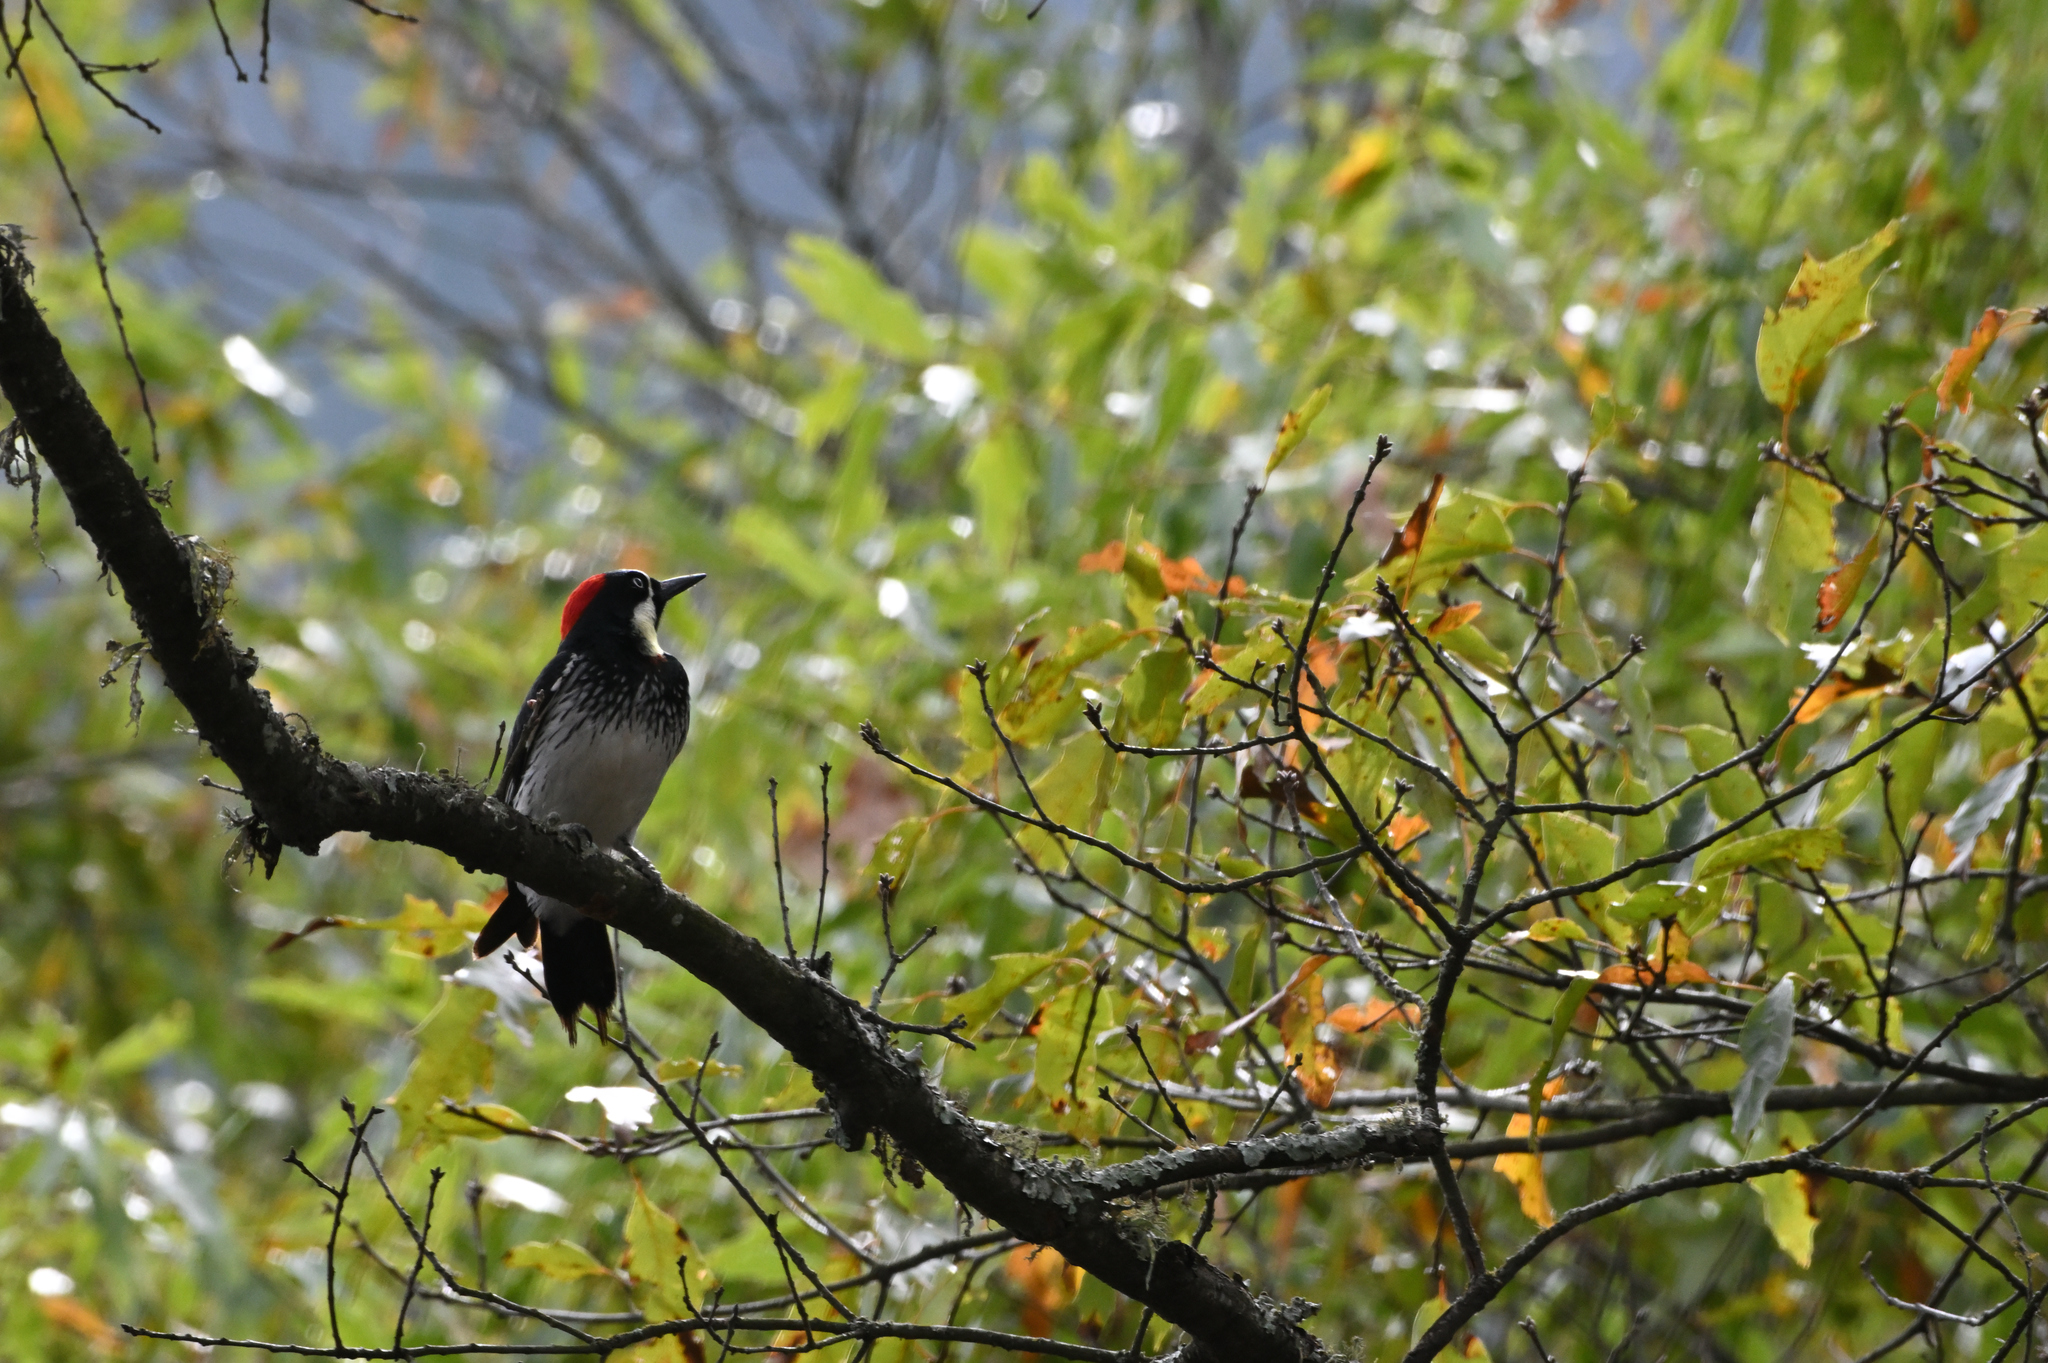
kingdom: Animalia
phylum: Chordata
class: Aves
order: Piciformes
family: Picidae
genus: Melanerpes
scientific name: Melanerpes formicivorus
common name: Acorn woodpecker
